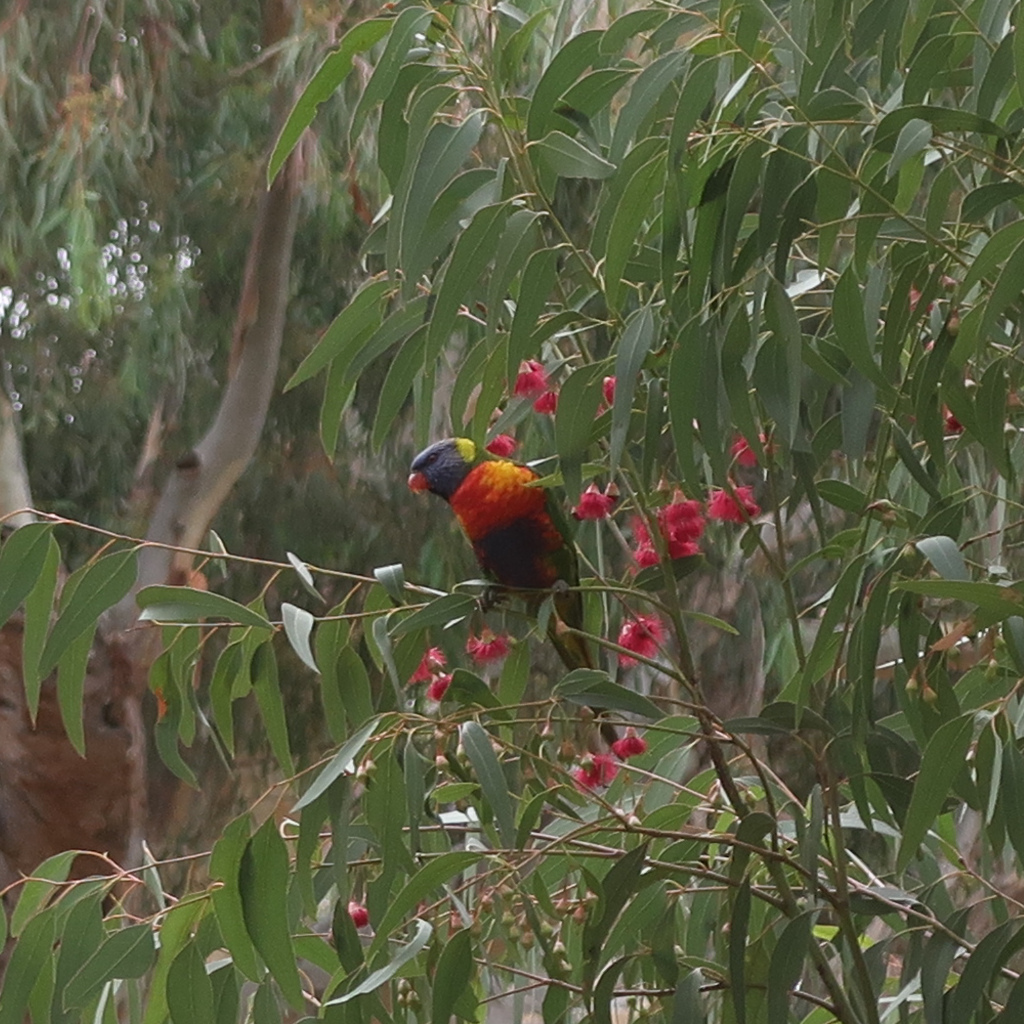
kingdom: Animalia
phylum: Chordata
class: Aves
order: Psittaciformes
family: Psittacidae
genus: Trichoglossus
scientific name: Trichoglossus haematodus
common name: Coconut lorikeet
